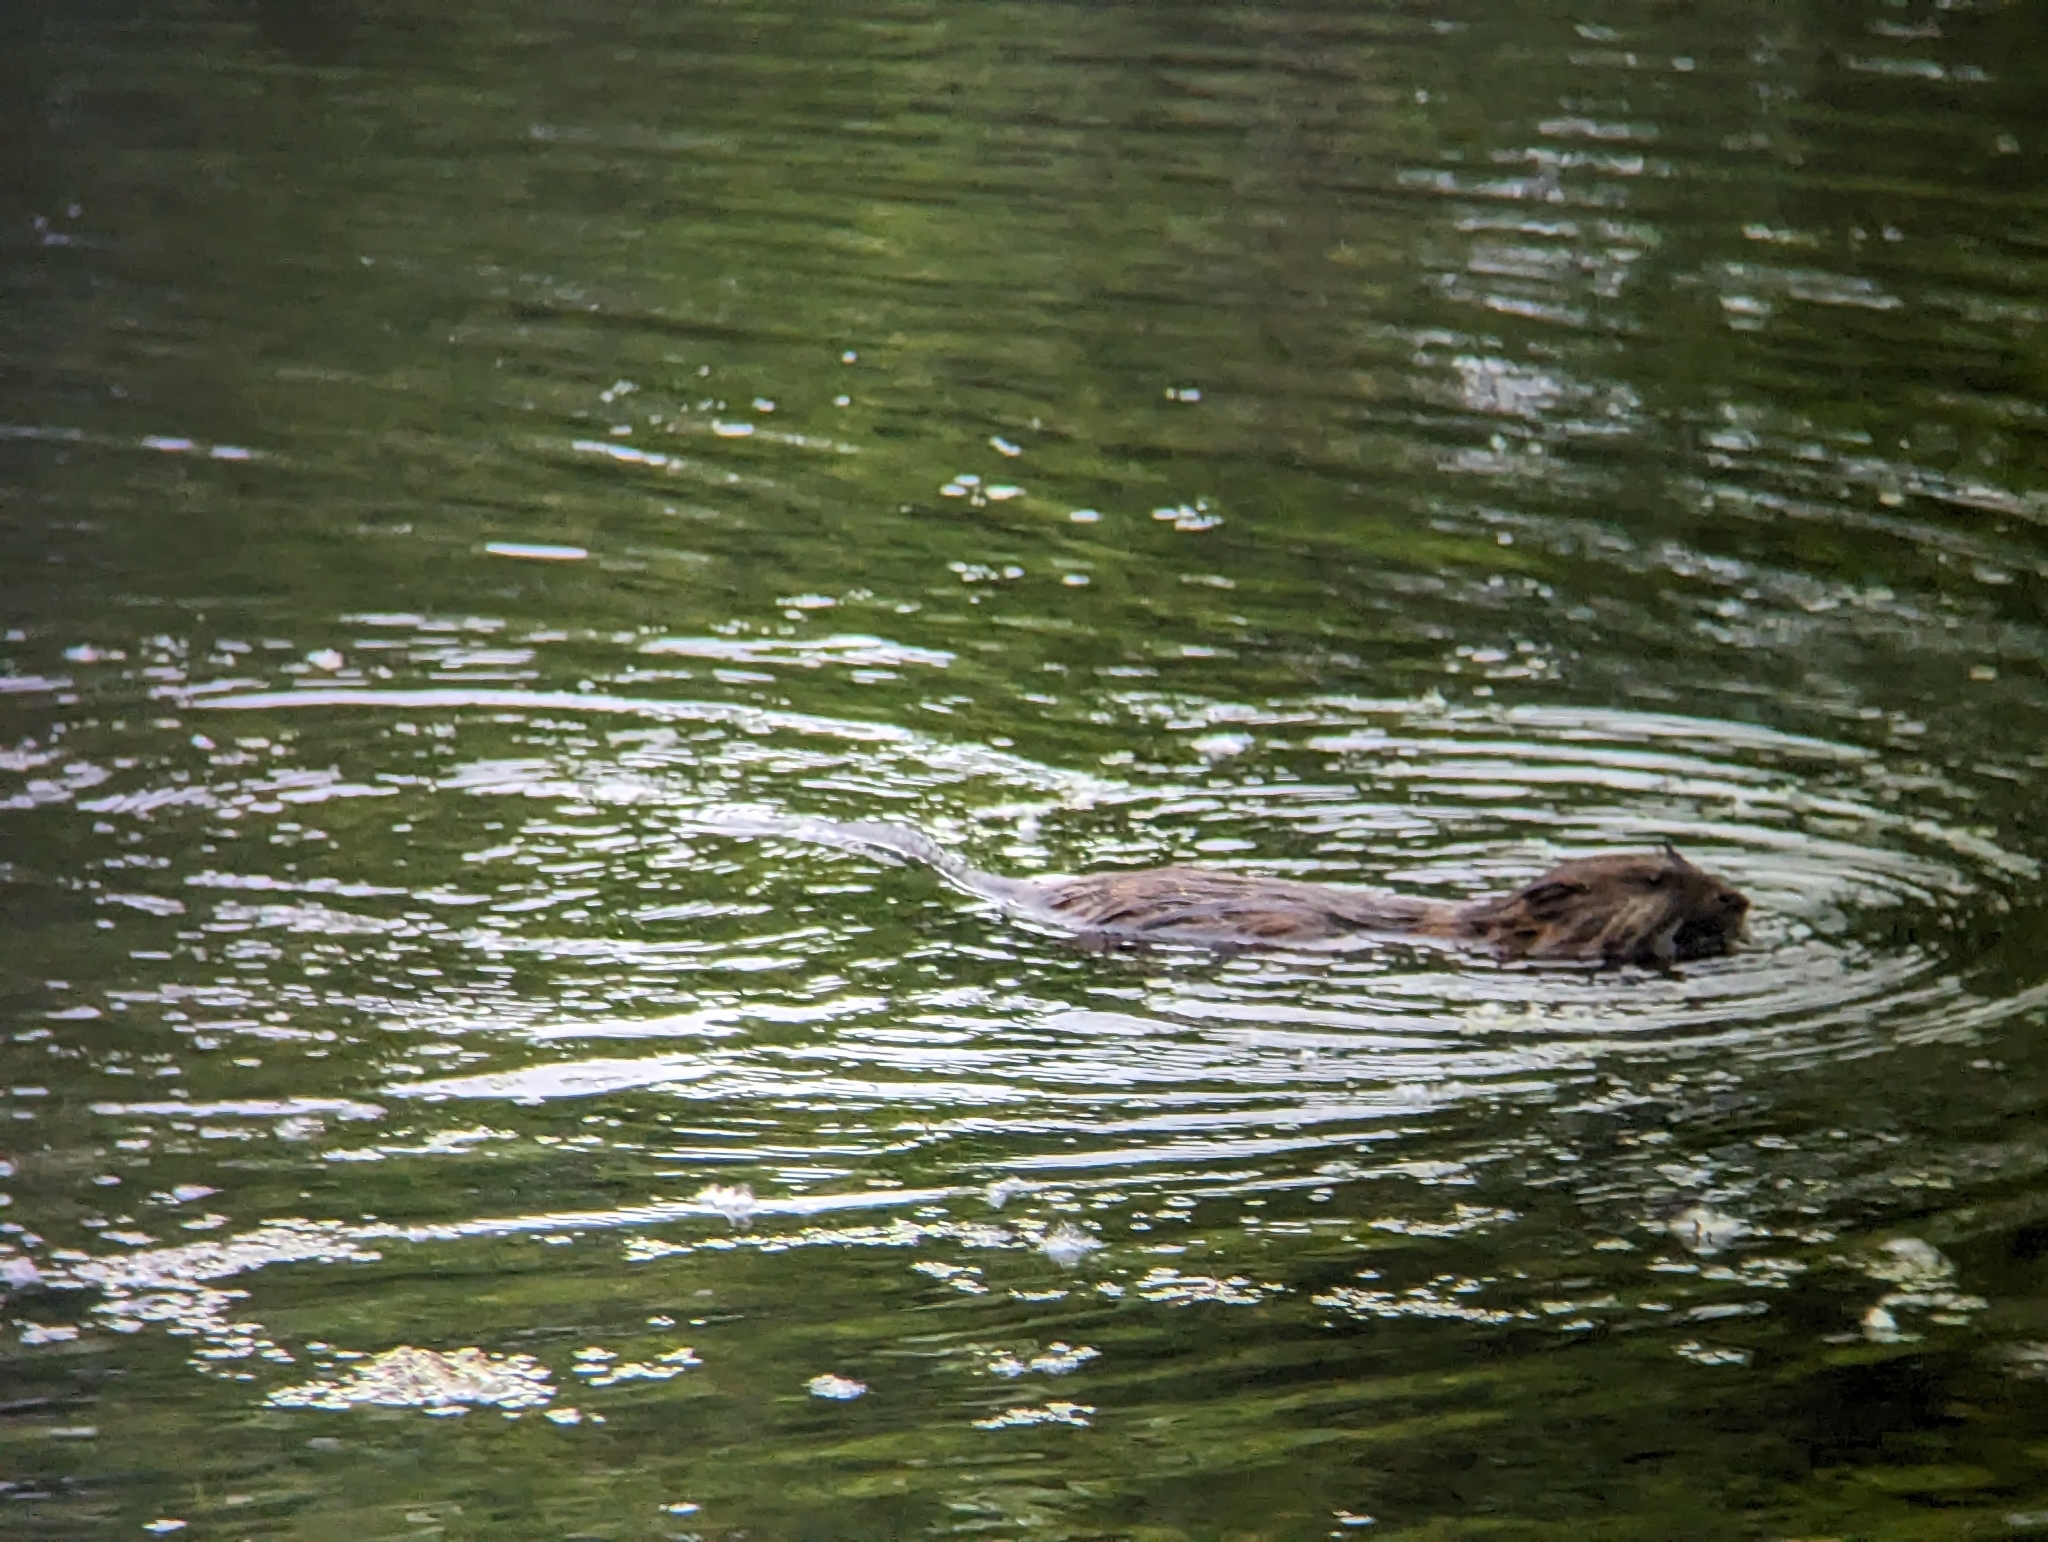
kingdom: Animalia
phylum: Chordata
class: Mammalia
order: Rodentia
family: Cricetidae
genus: Ondatra
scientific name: Ondatra zibethicus
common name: Muskrat
